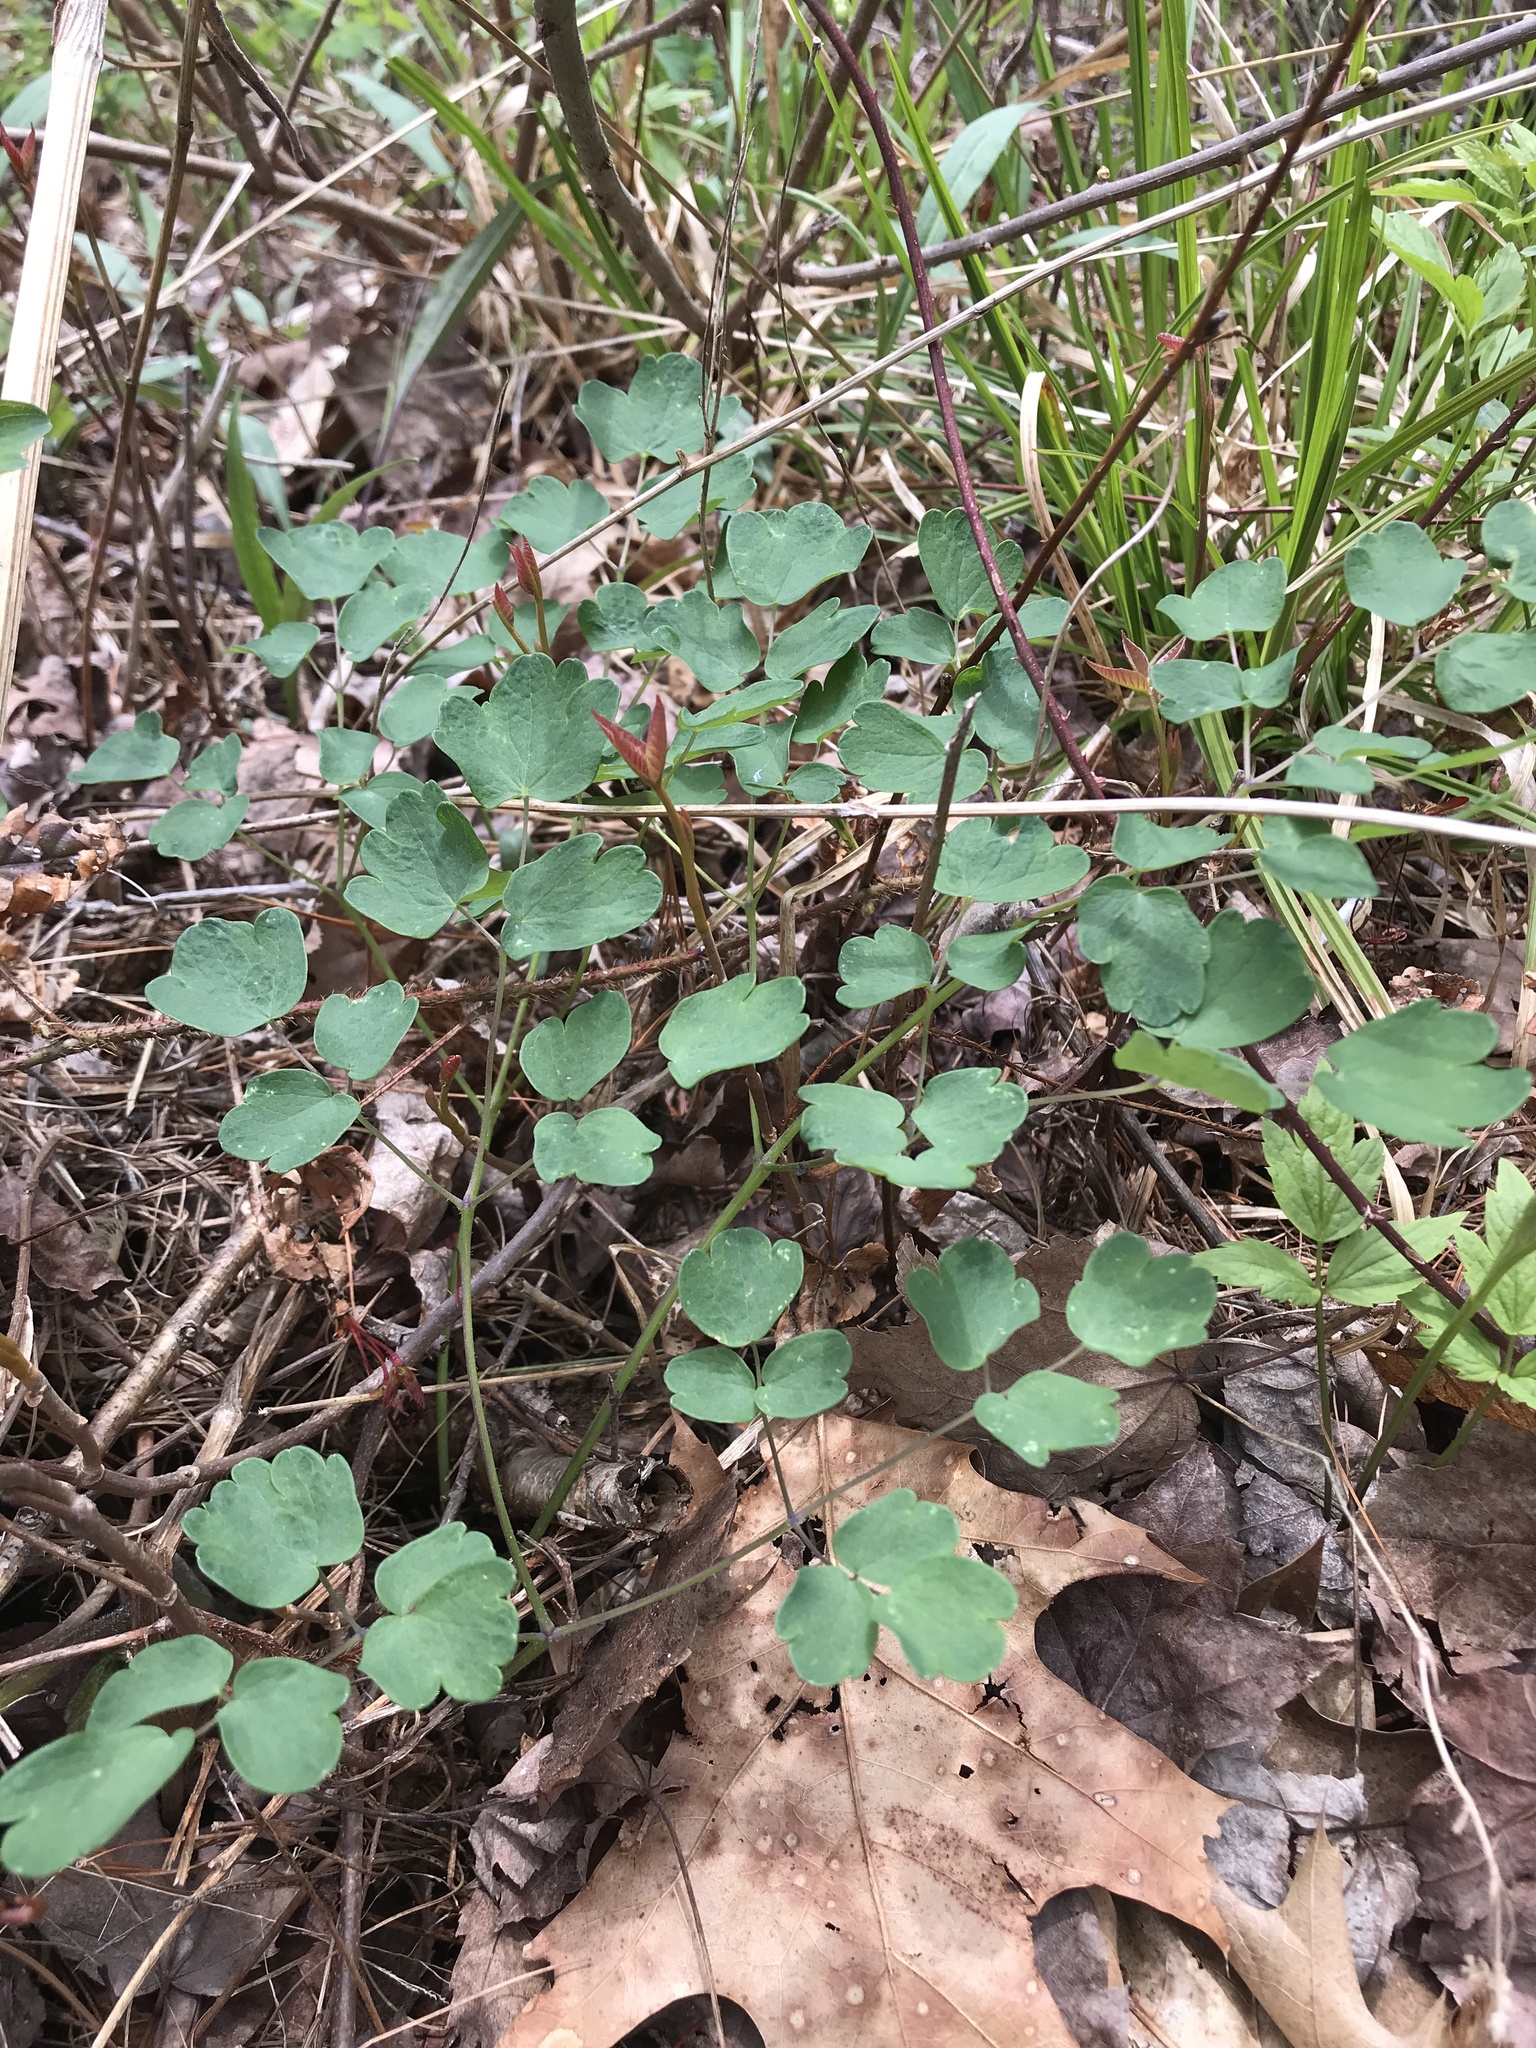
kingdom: Plantae
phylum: Tracheophyta
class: Magnoliopsida
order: Ranunculales
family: Ranunculaceae
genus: Thalictrum
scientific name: Thalictrum pubescens
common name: King-of-the-meadow
